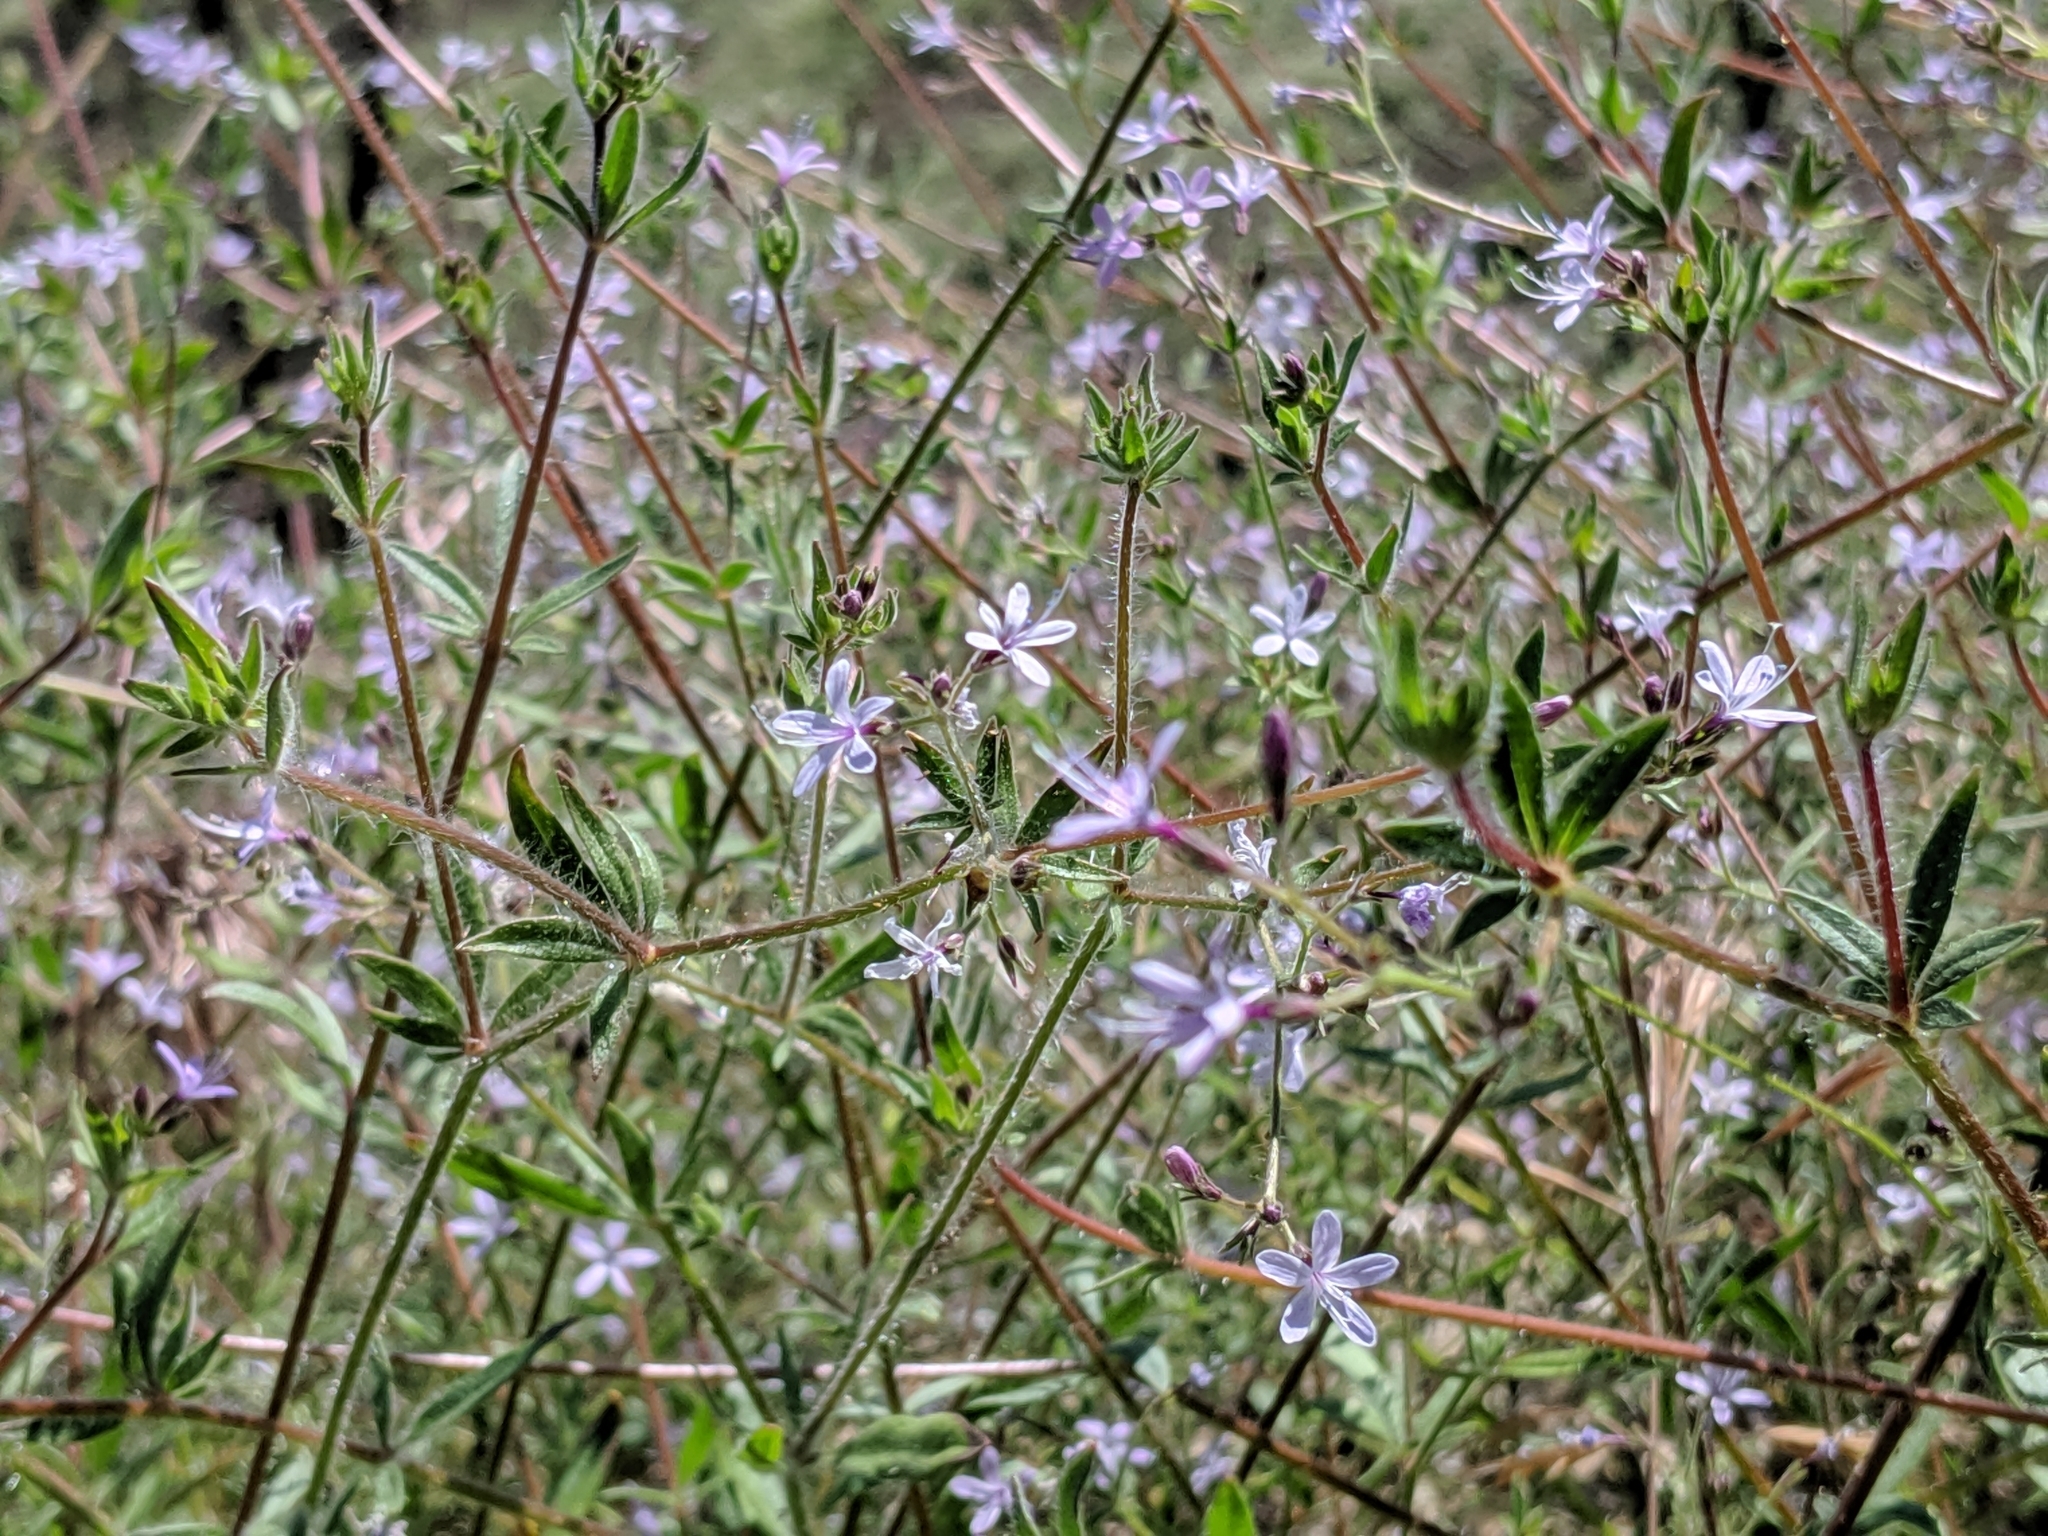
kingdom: Plantae
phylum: Tracheophyta
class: Magnoliopsida
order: Ericales
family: Polemoniaceae
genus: Allophyllum
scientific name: Allophyllum glutinosum
